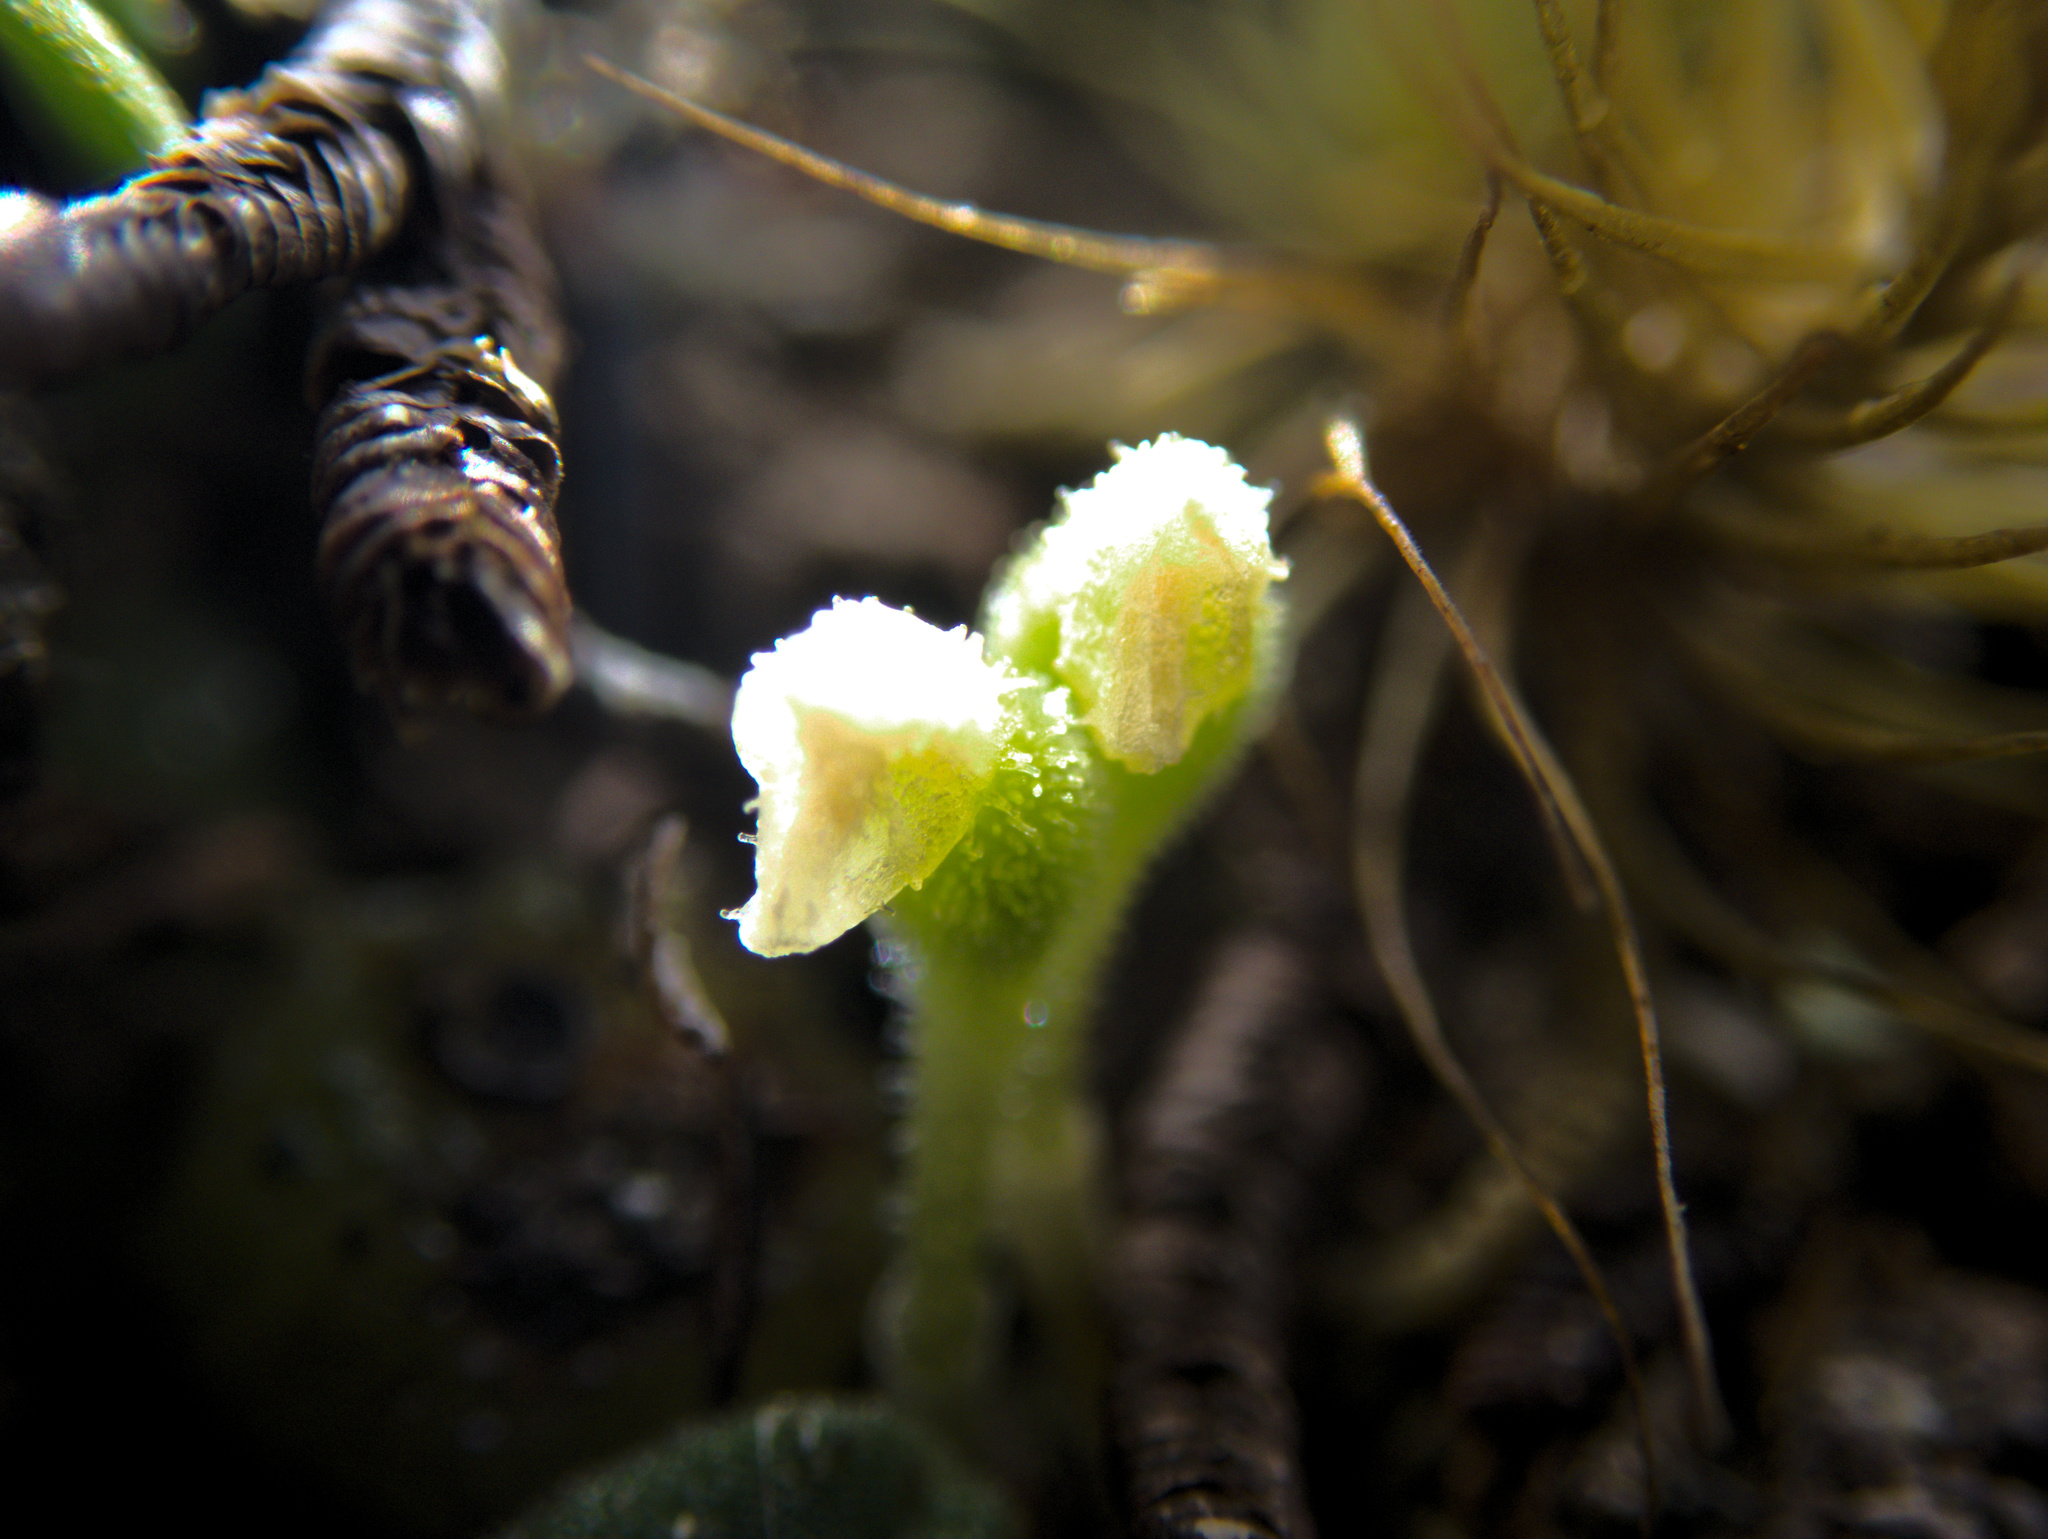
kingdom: Plantae
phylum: Tracheophyta
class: Liliopsida
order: Asparagales
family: Orchidaceae
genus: Bulbophyllum
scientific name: Bulbophyllum pygmaeum
